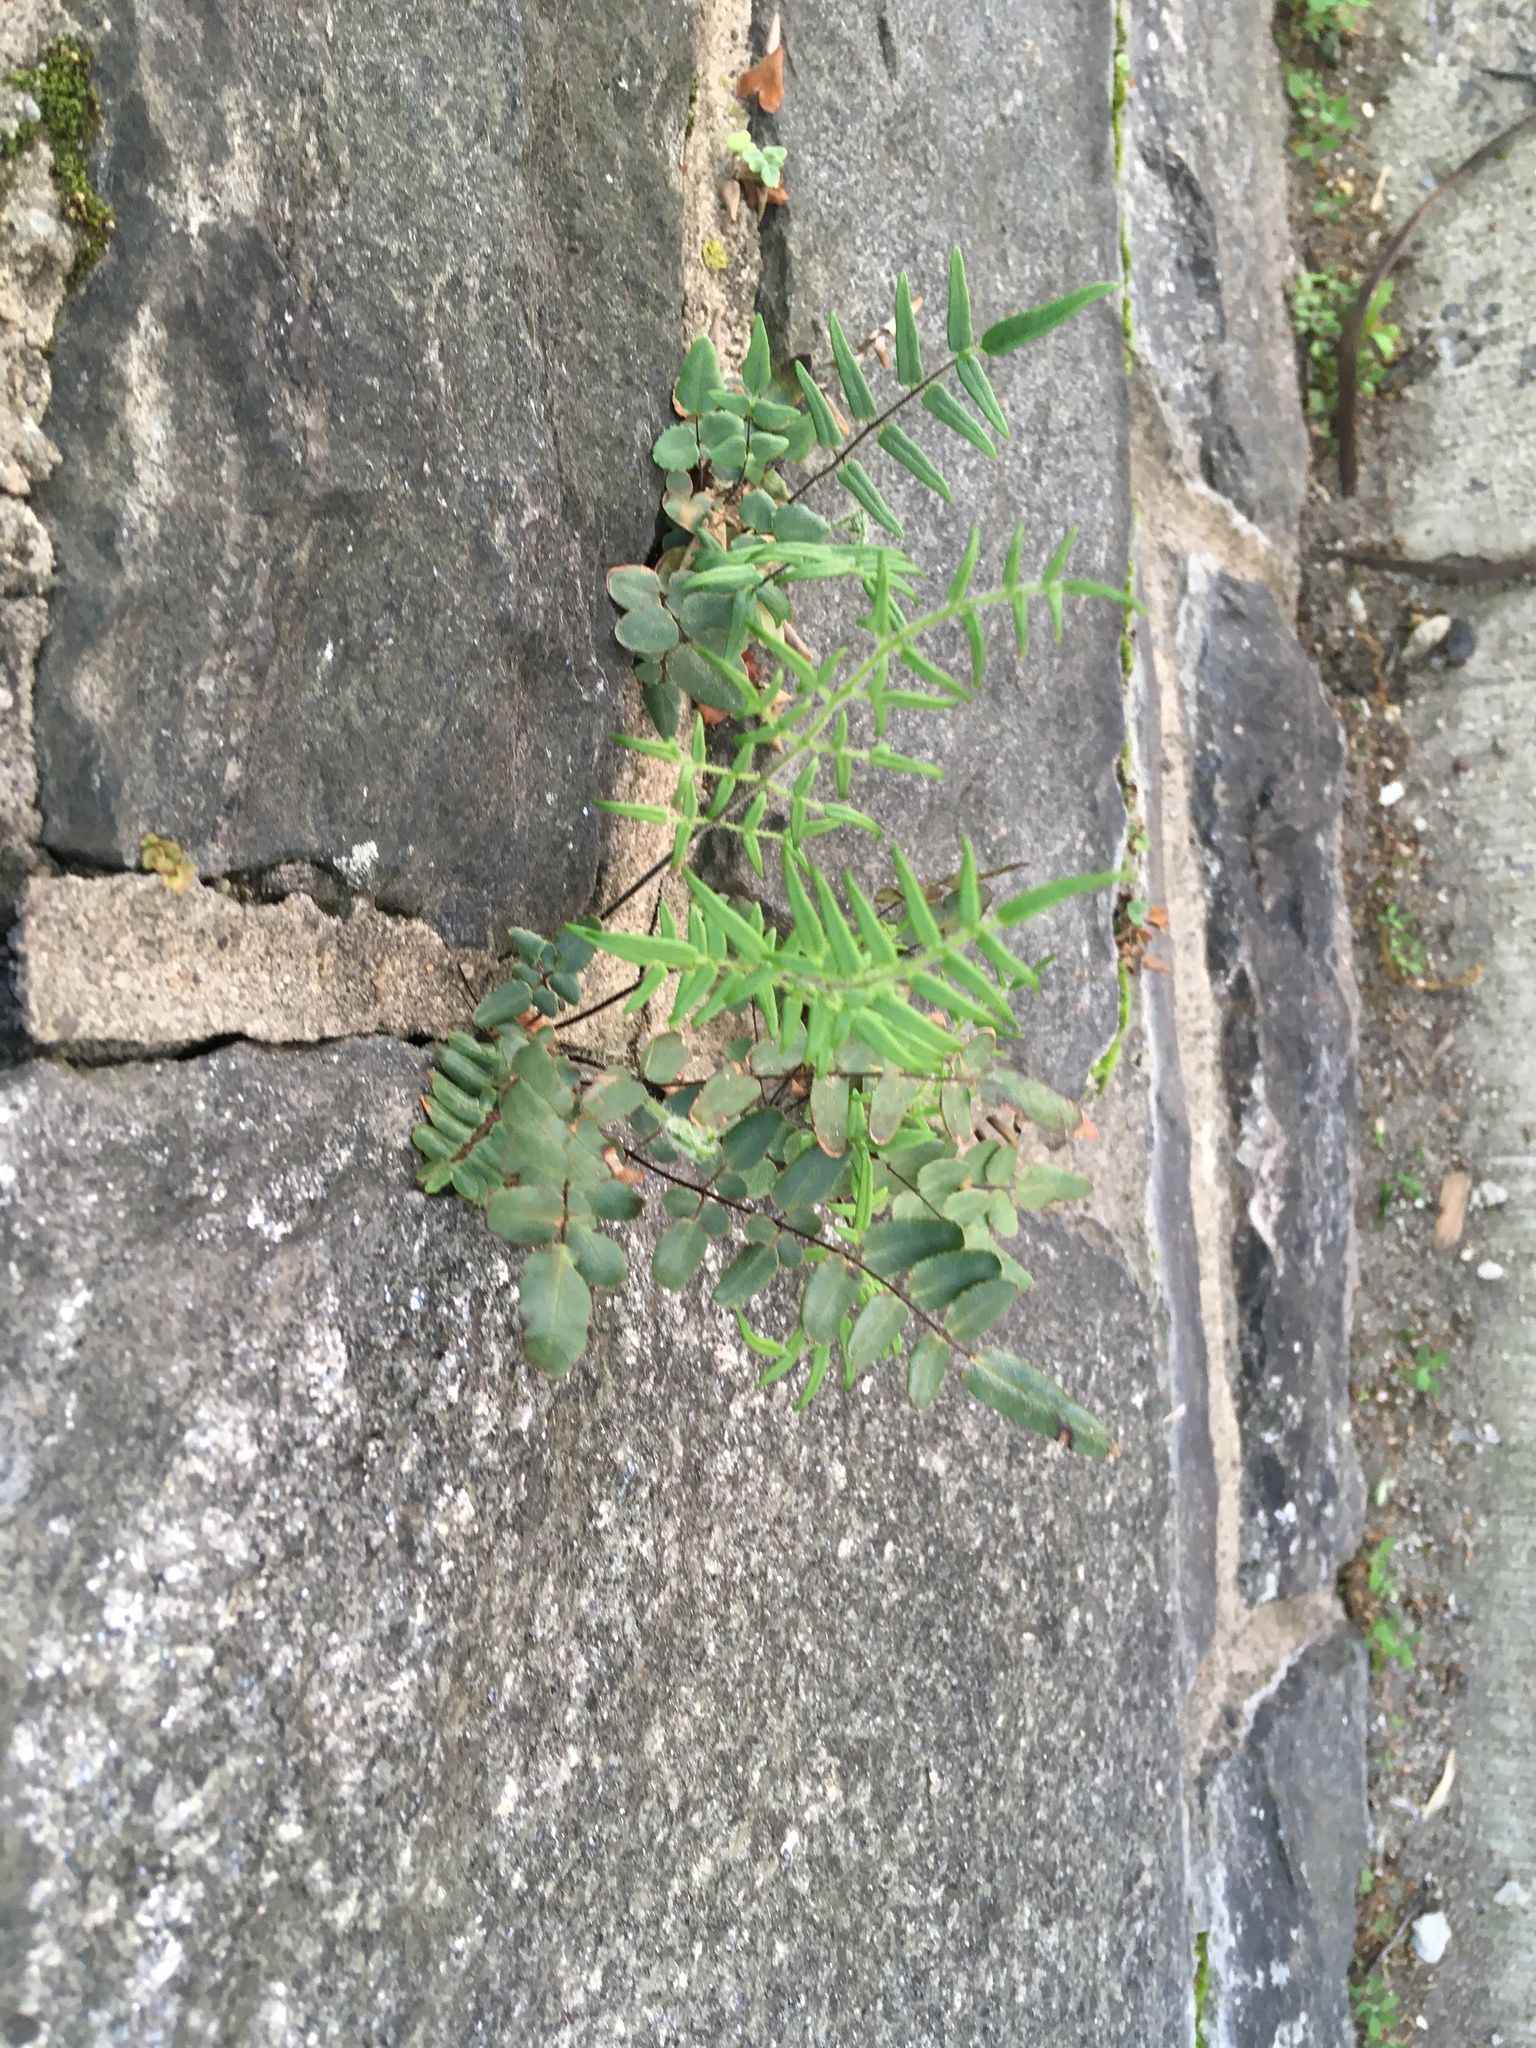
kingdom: Plantae
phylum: Tracheophyta
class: Polypodiopsida
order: Polypodiales
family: Pteridaceae
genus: Pellaea
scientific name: Pellaea atropurpurea
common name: Hairy cliffbrake
